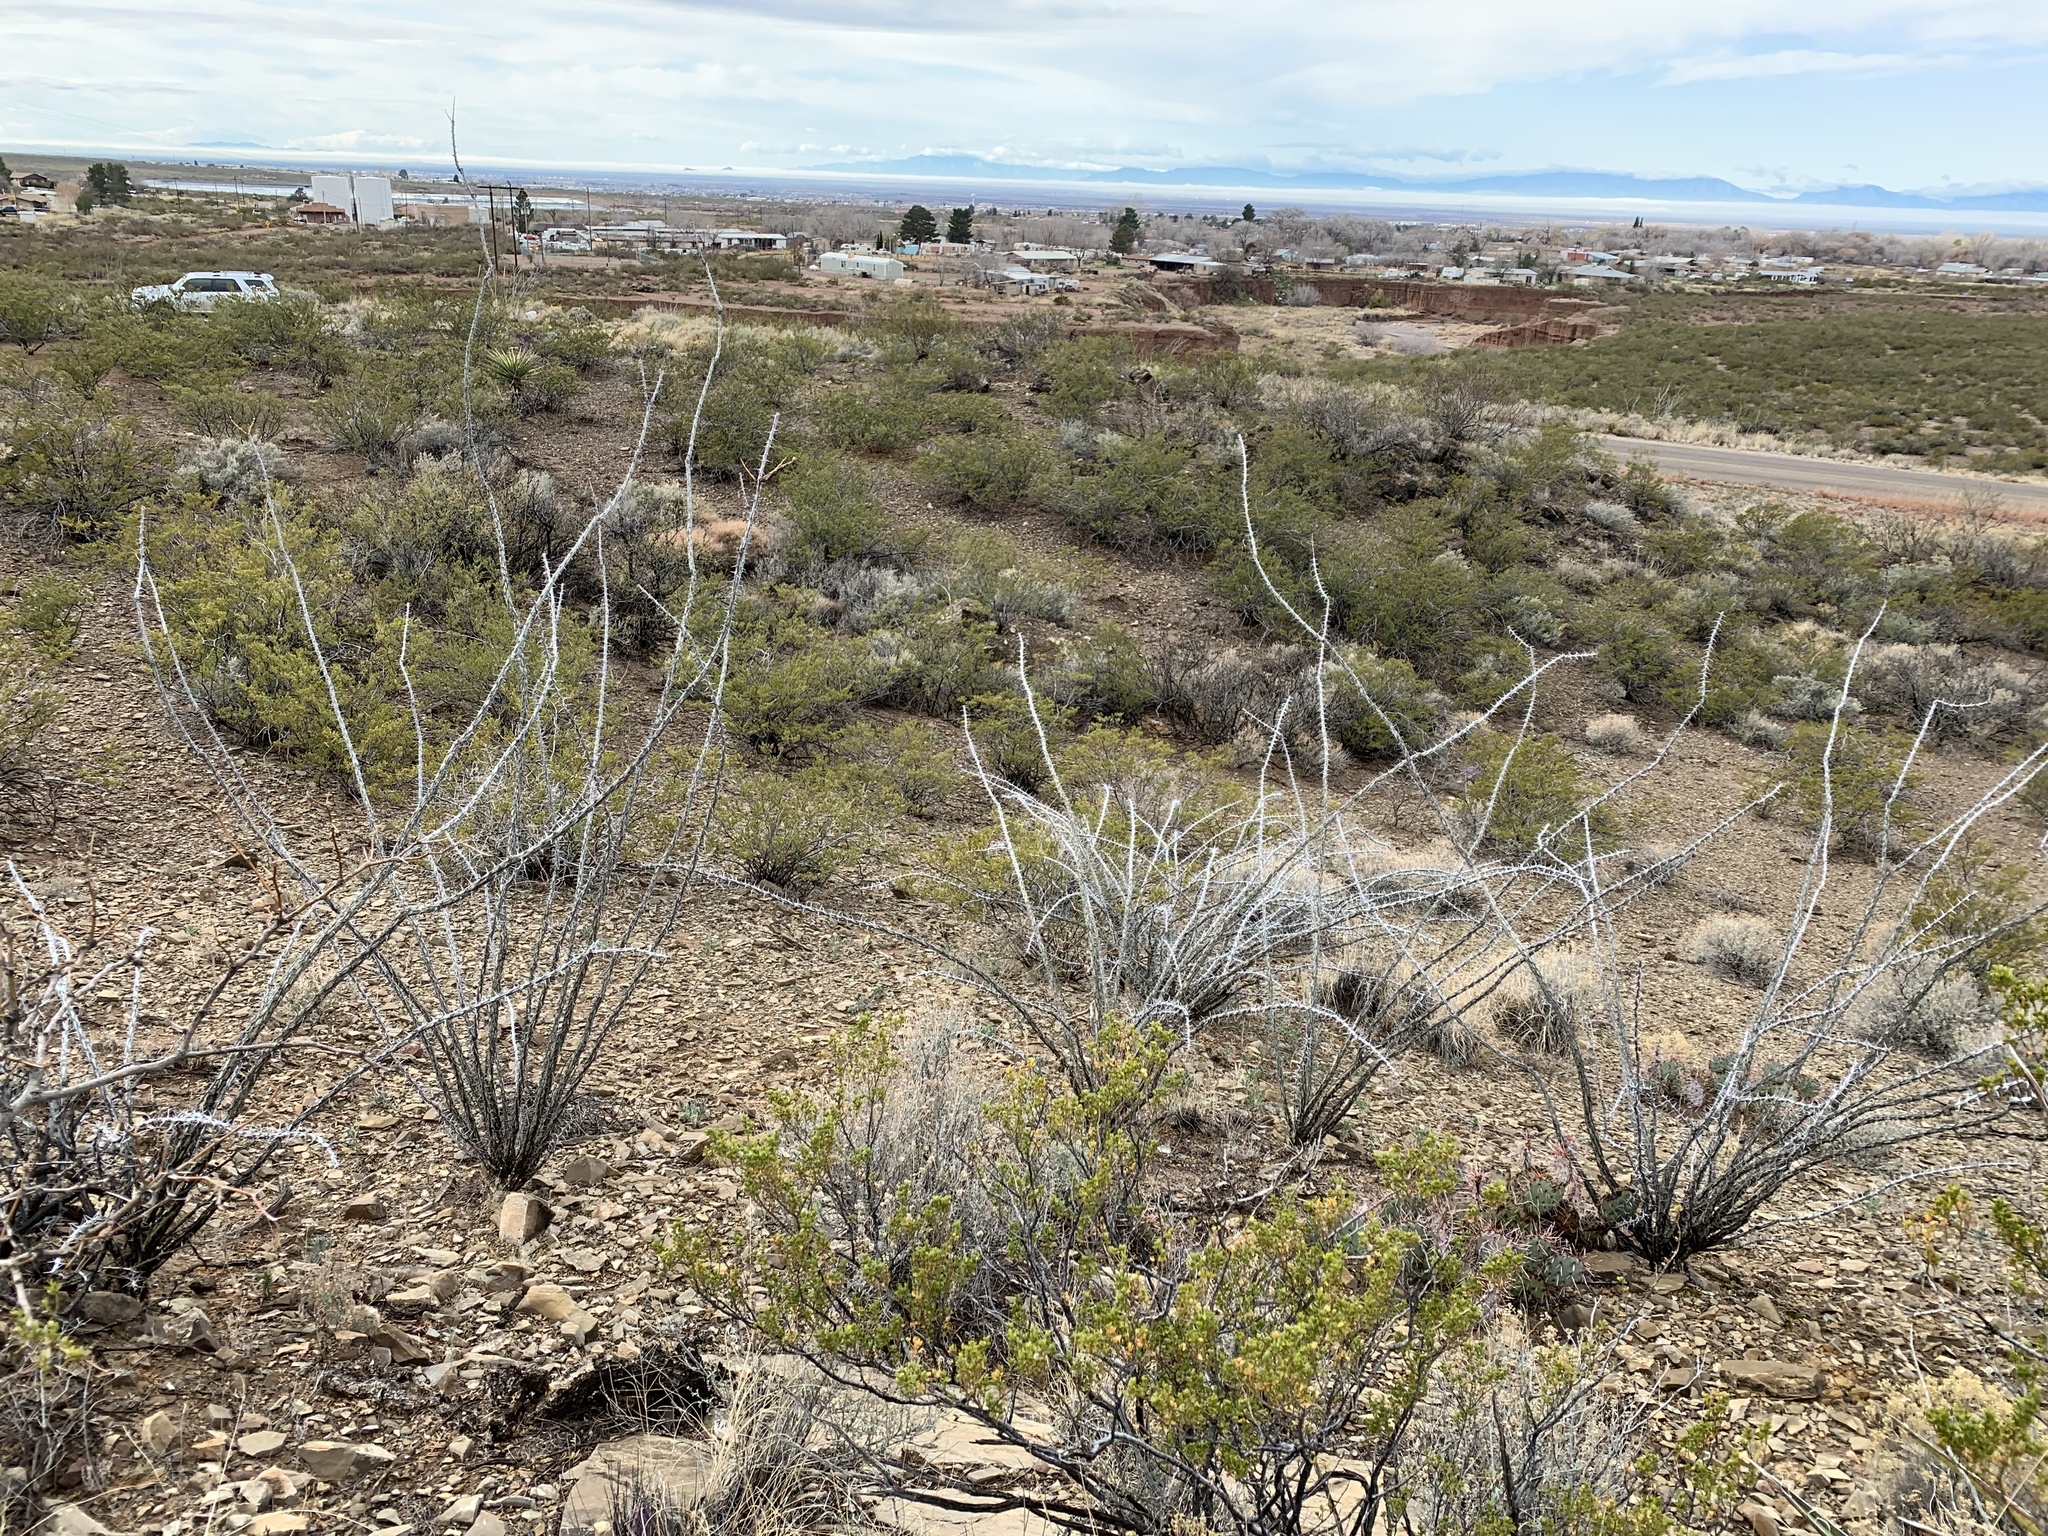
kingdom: Plantae
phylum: Tracheophyta
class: Magnoliopsida
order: Ericales
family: Fouquieriaceae
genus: Fouquieria
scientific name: Fouquieria splendens
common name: Vine-cactus
